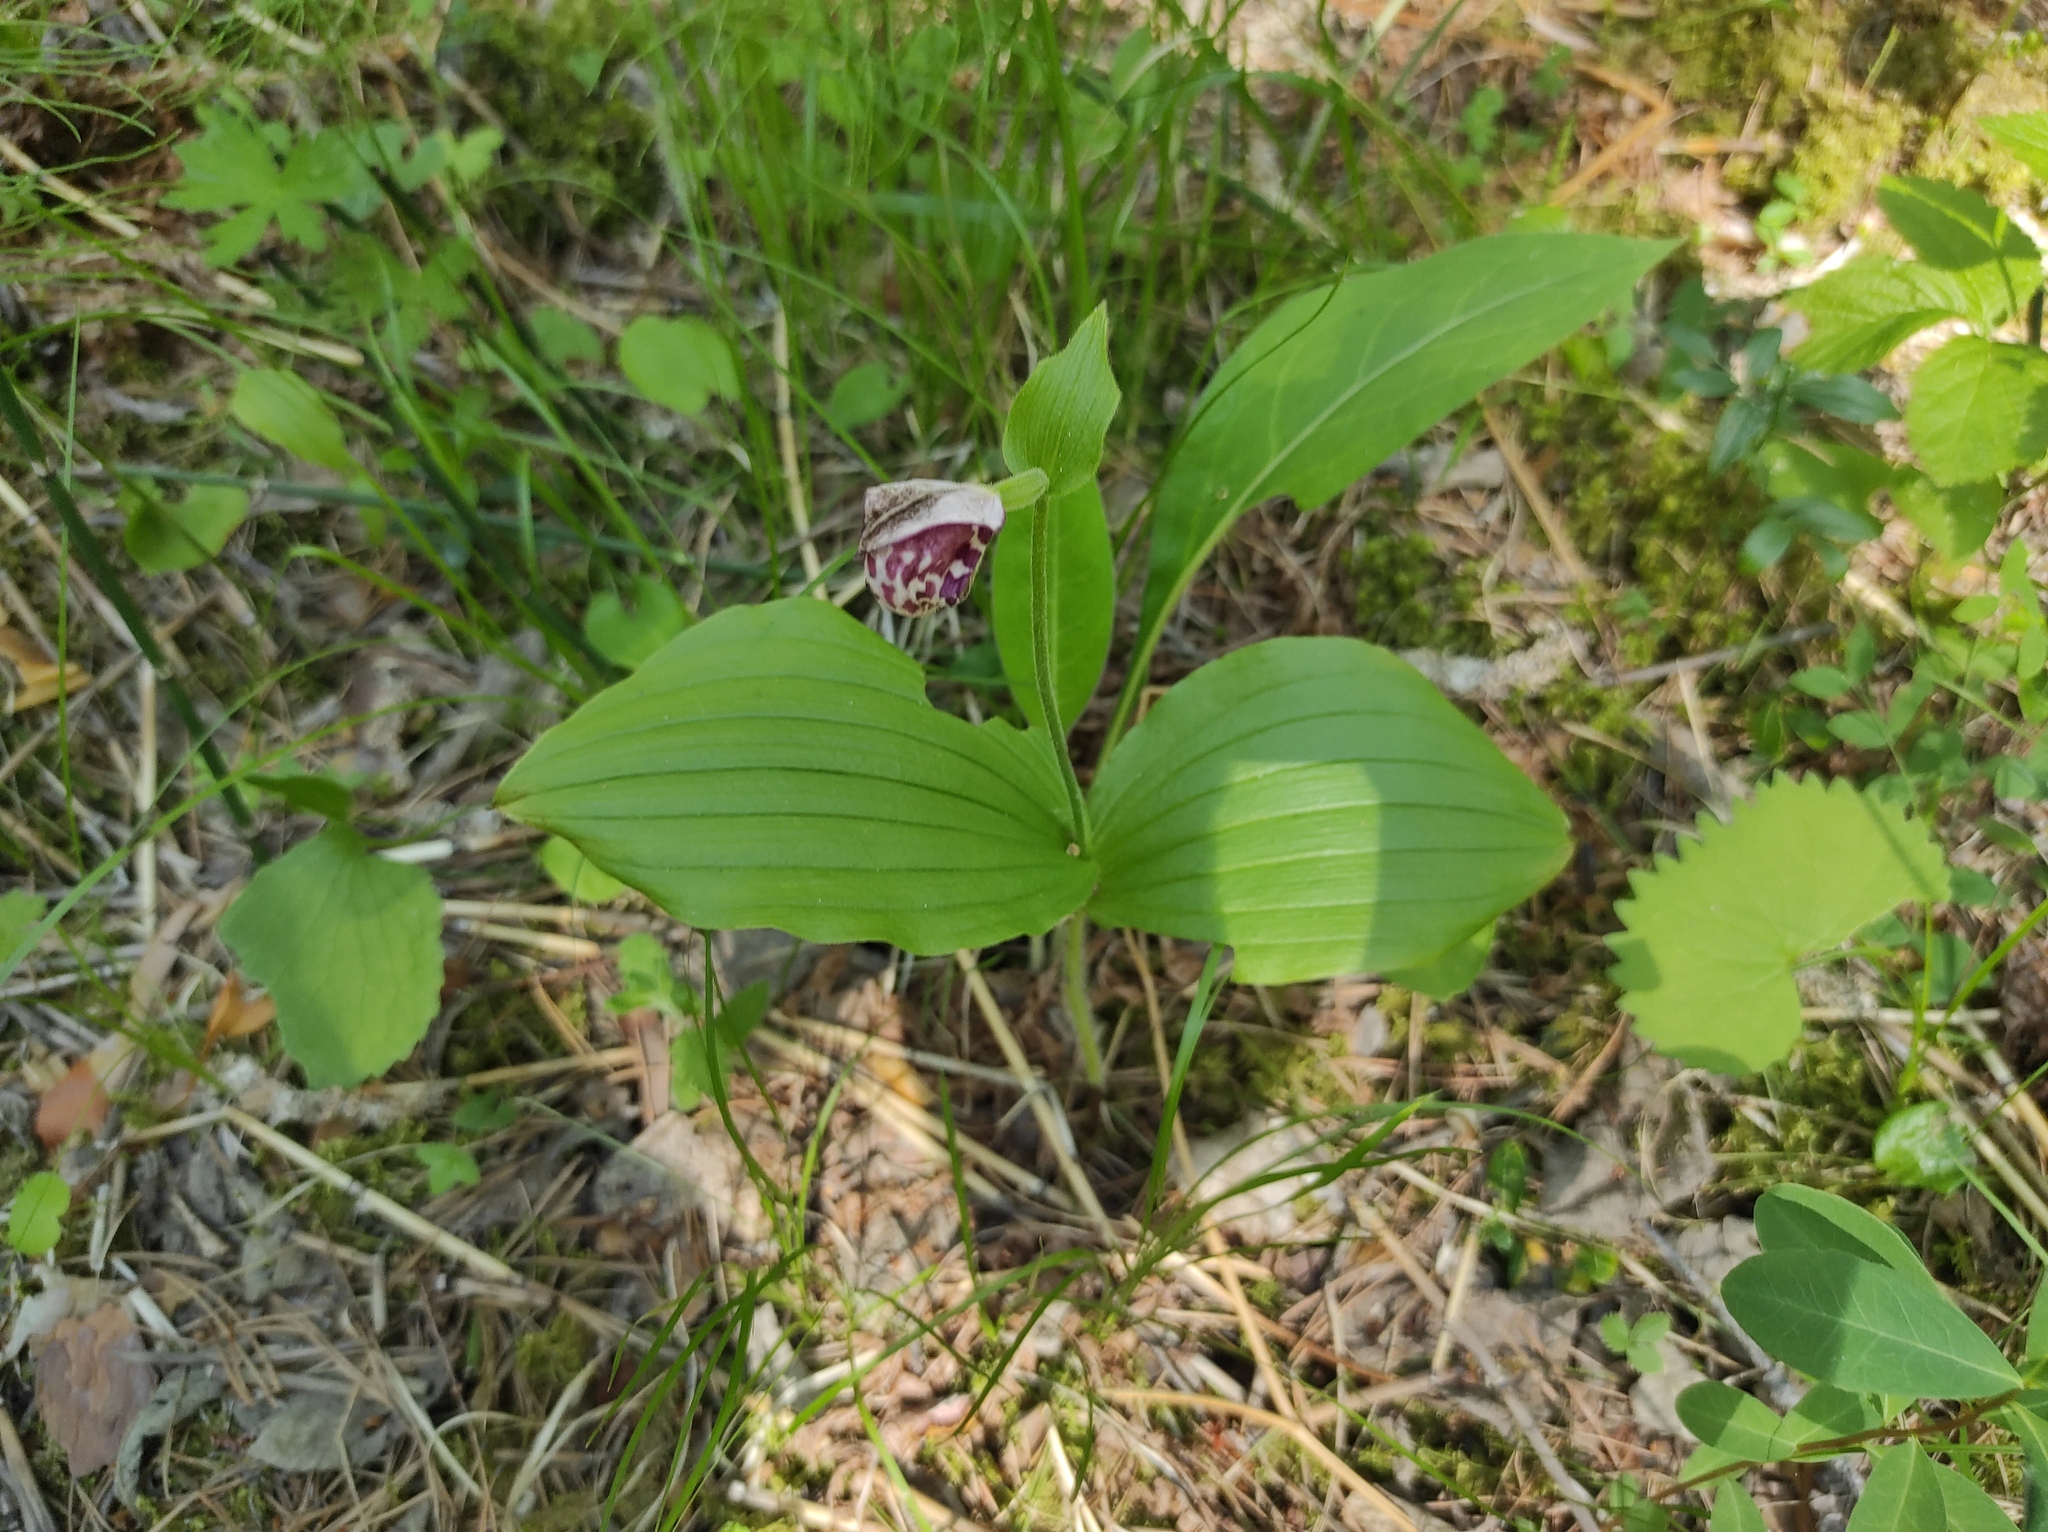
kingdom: Plantae
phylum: Tracheophyta
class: Liliopsida
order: Asparagales
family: Orchidaceae
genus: Cypripedium
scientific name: Cypripedium guttatum
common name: Pink lady slipper
